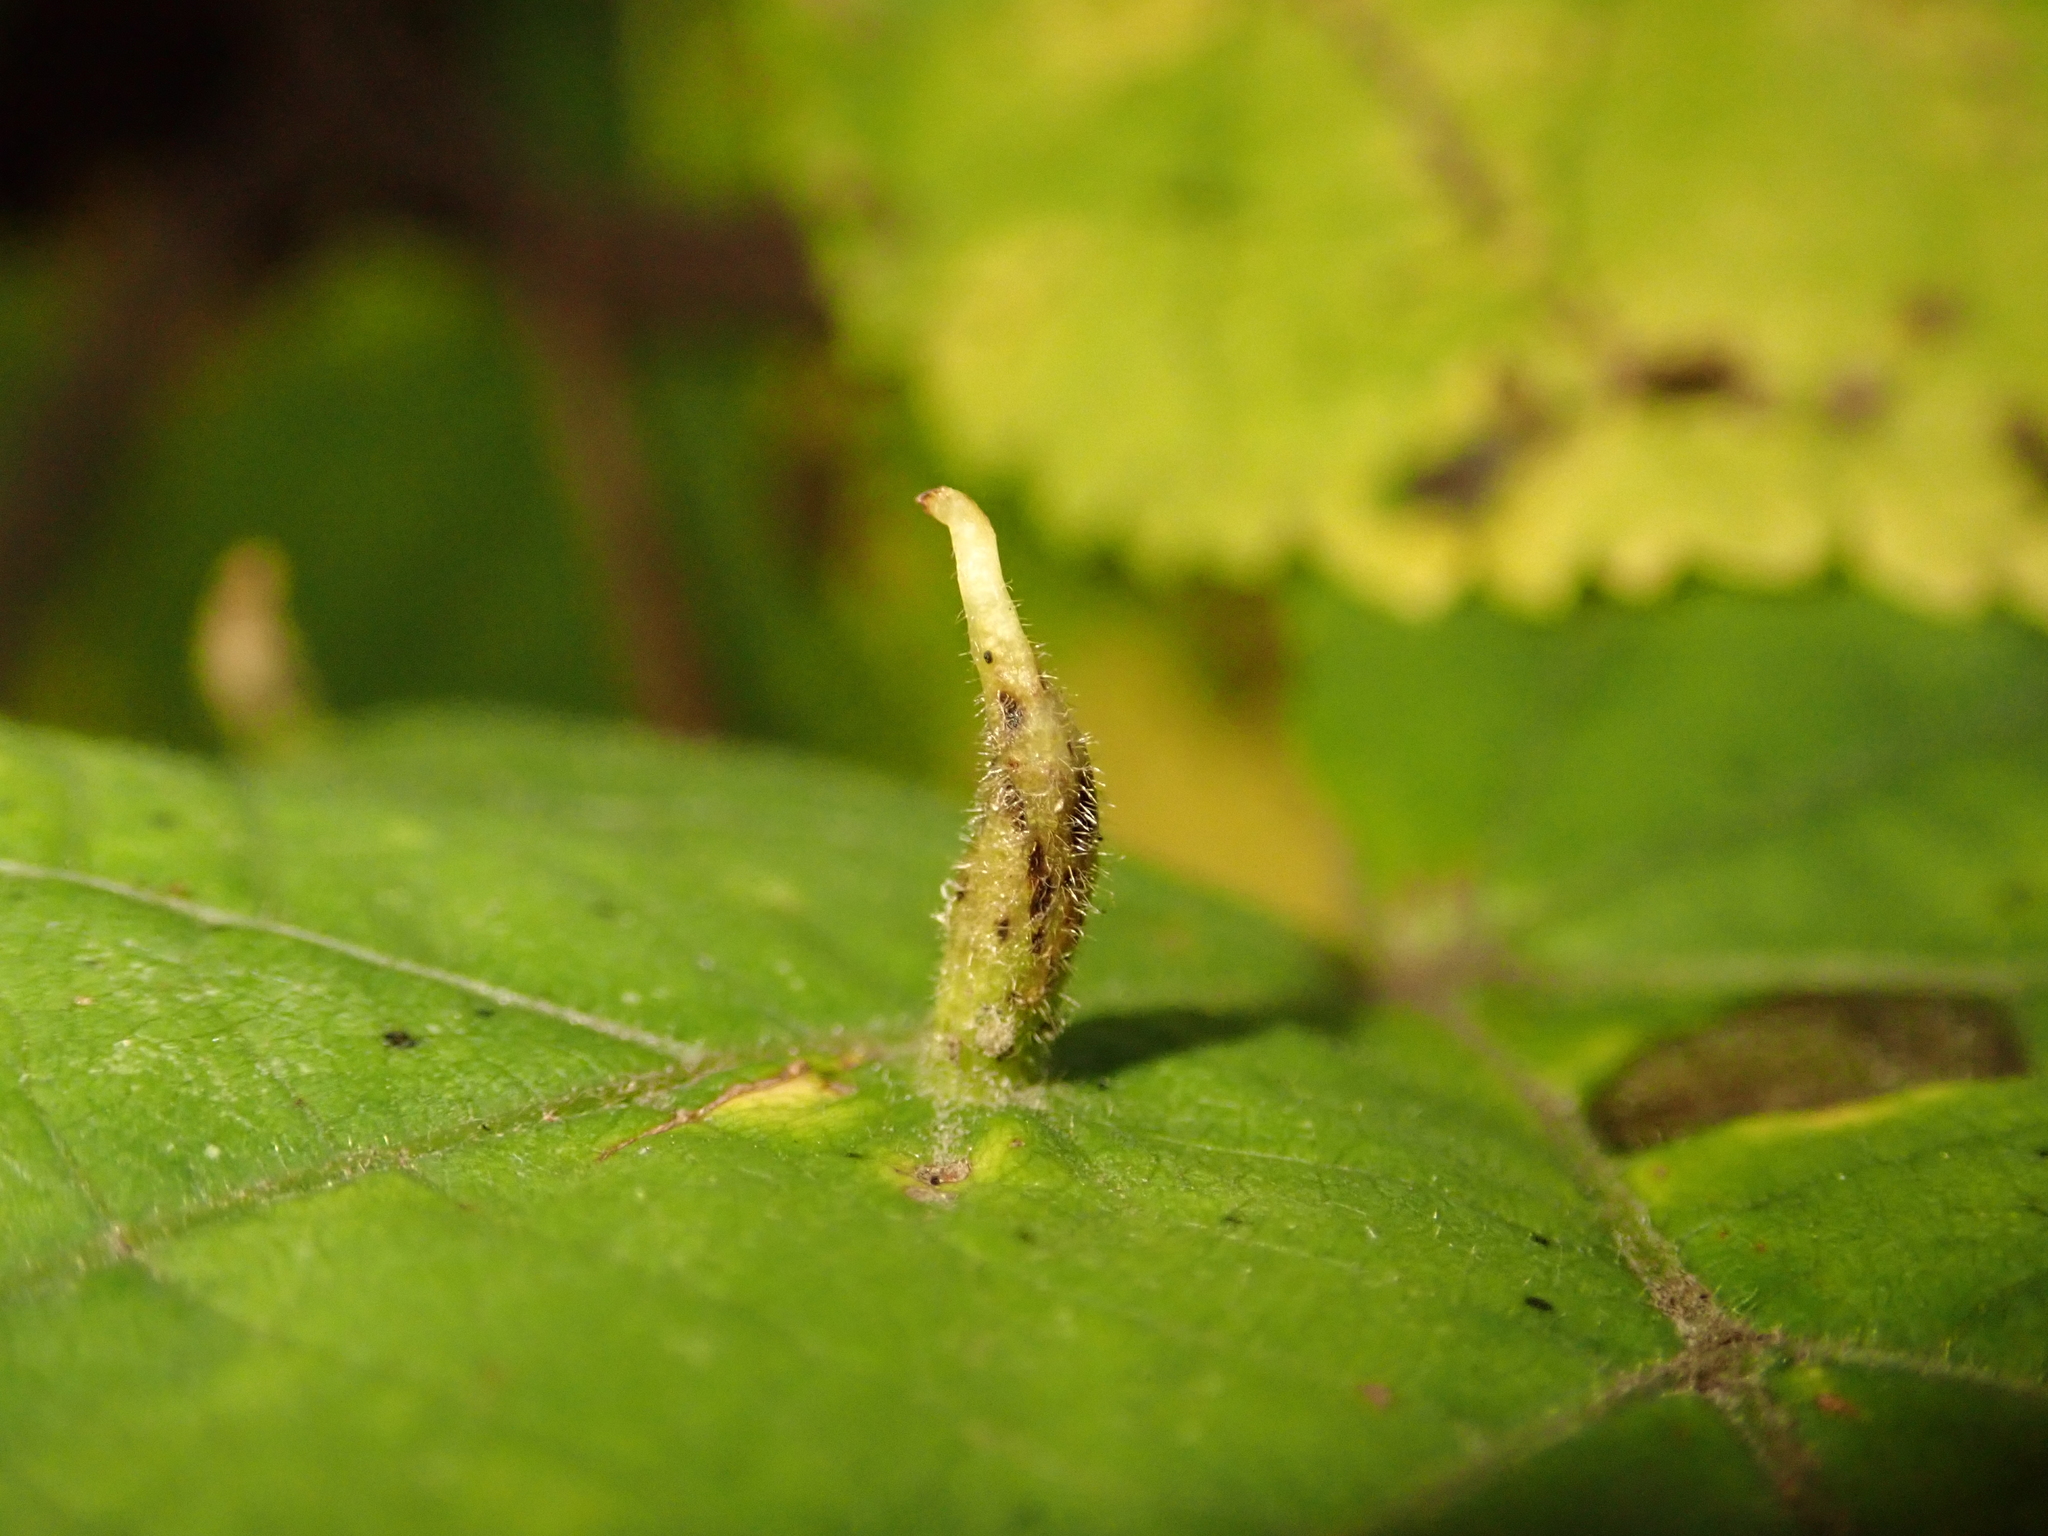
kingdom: Animalia
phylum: Arthropoda
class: Arachnida
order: Trombidiformes
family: Eriophyidae
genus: Eriophyes
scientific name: Eriophyes tiliae
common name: Red nail gall mite
